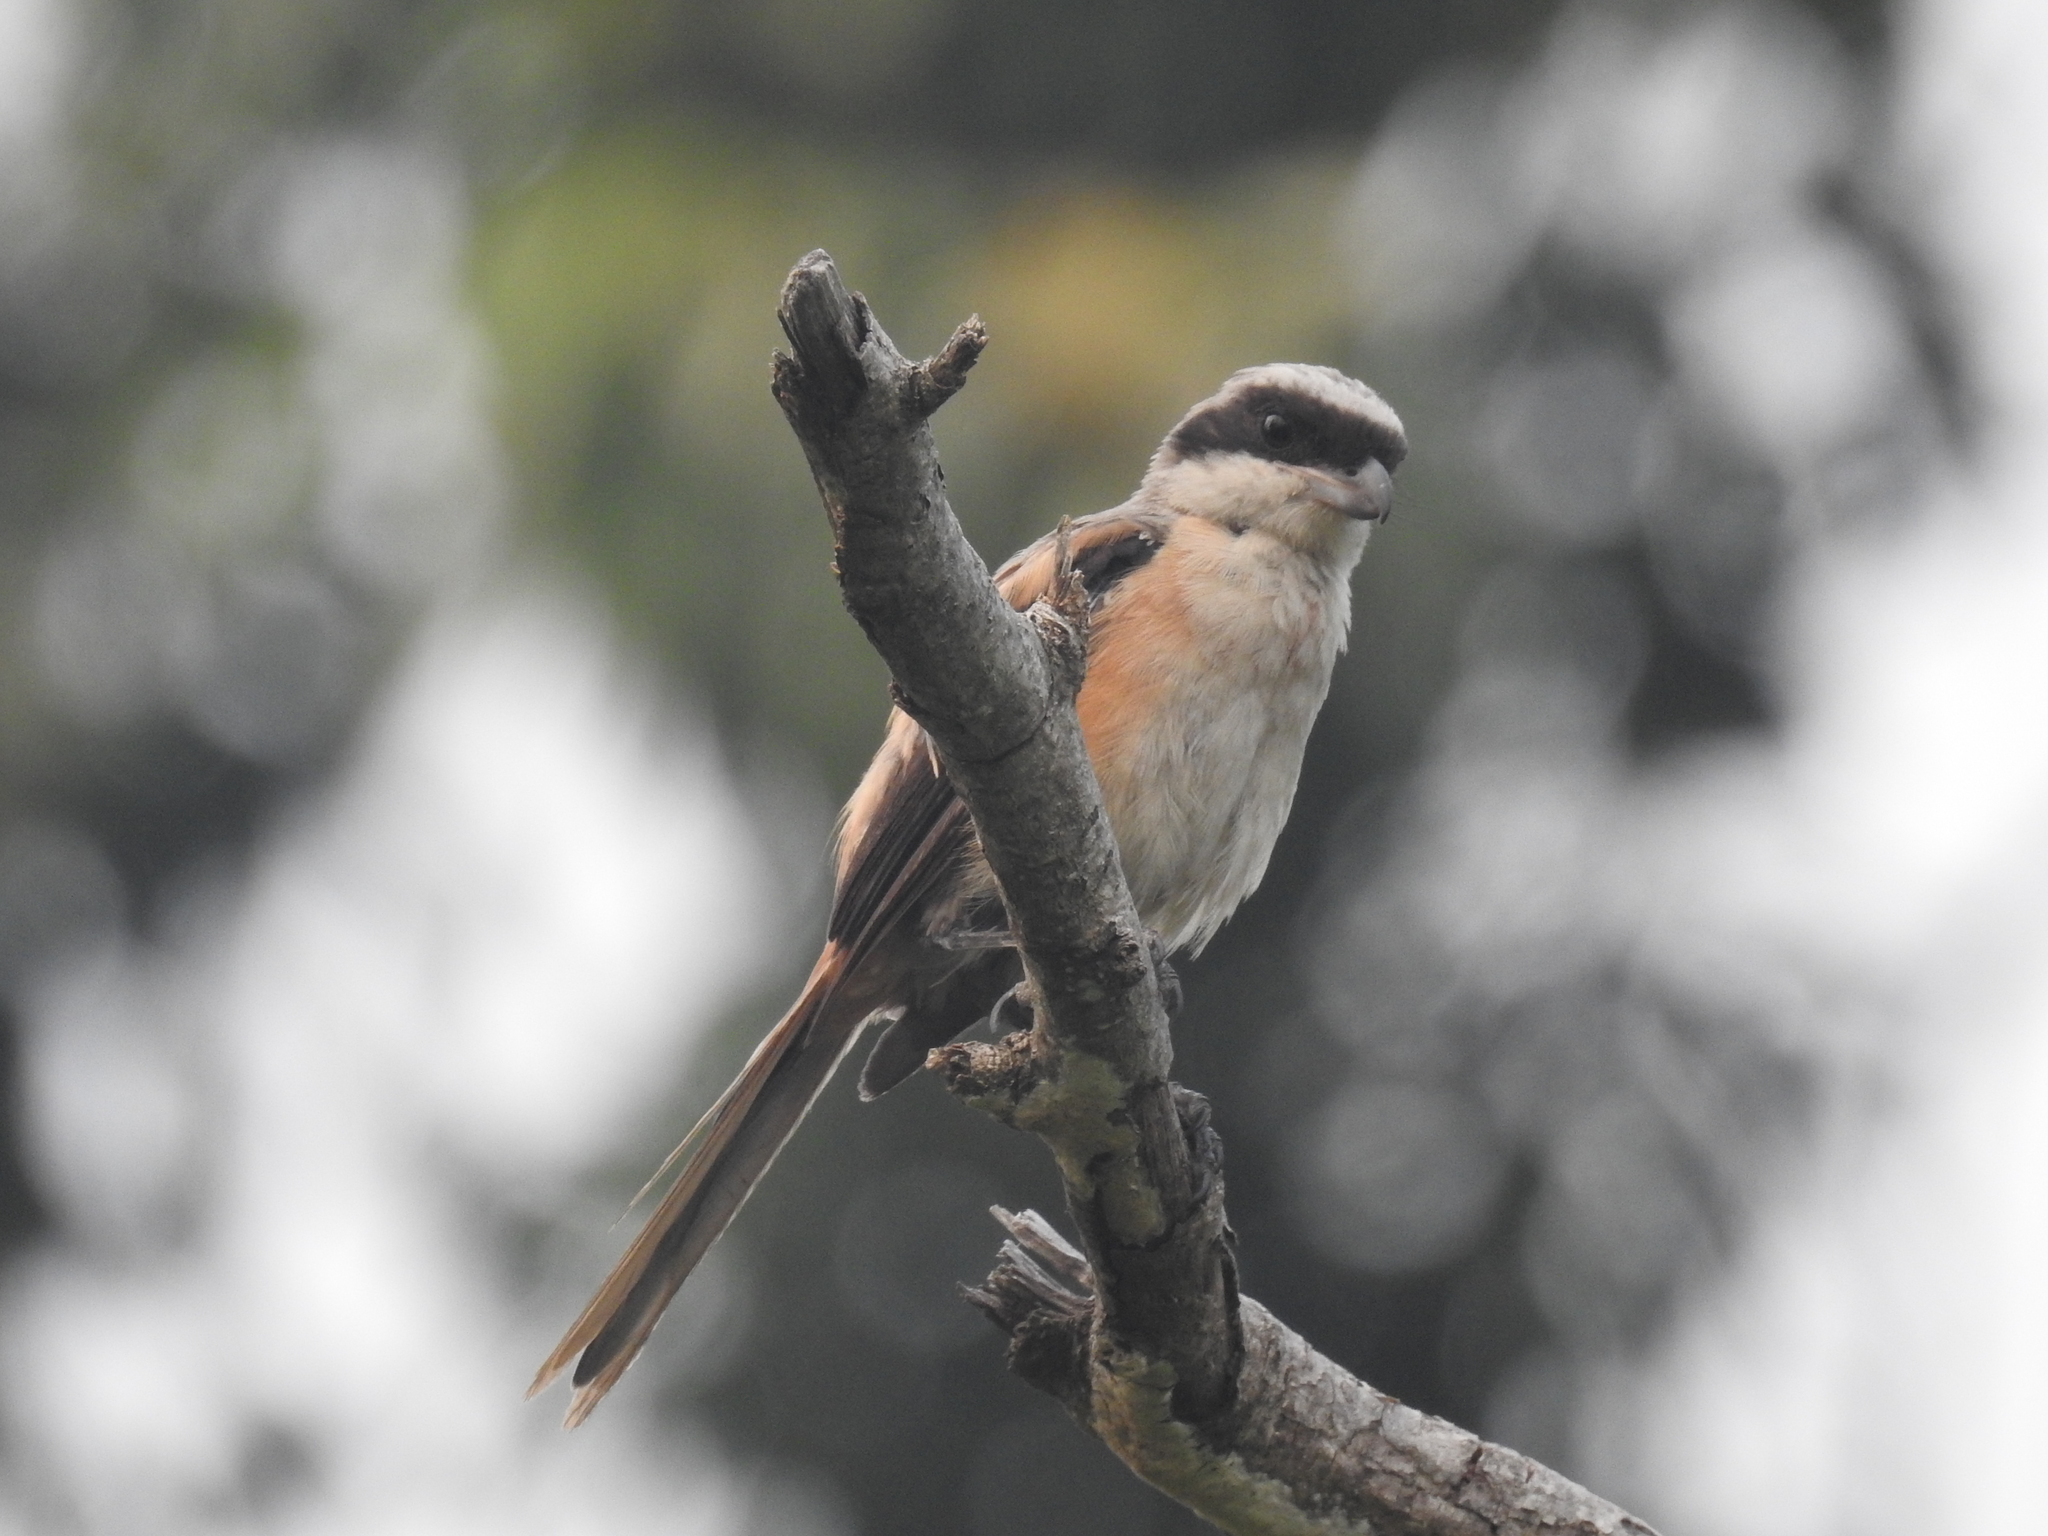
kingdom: Animalia
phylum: Chordata
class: Aves
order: Passeriformes
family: Laniidae
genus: Lanius
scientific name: Lanius schach
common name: Long-tailed shrike
